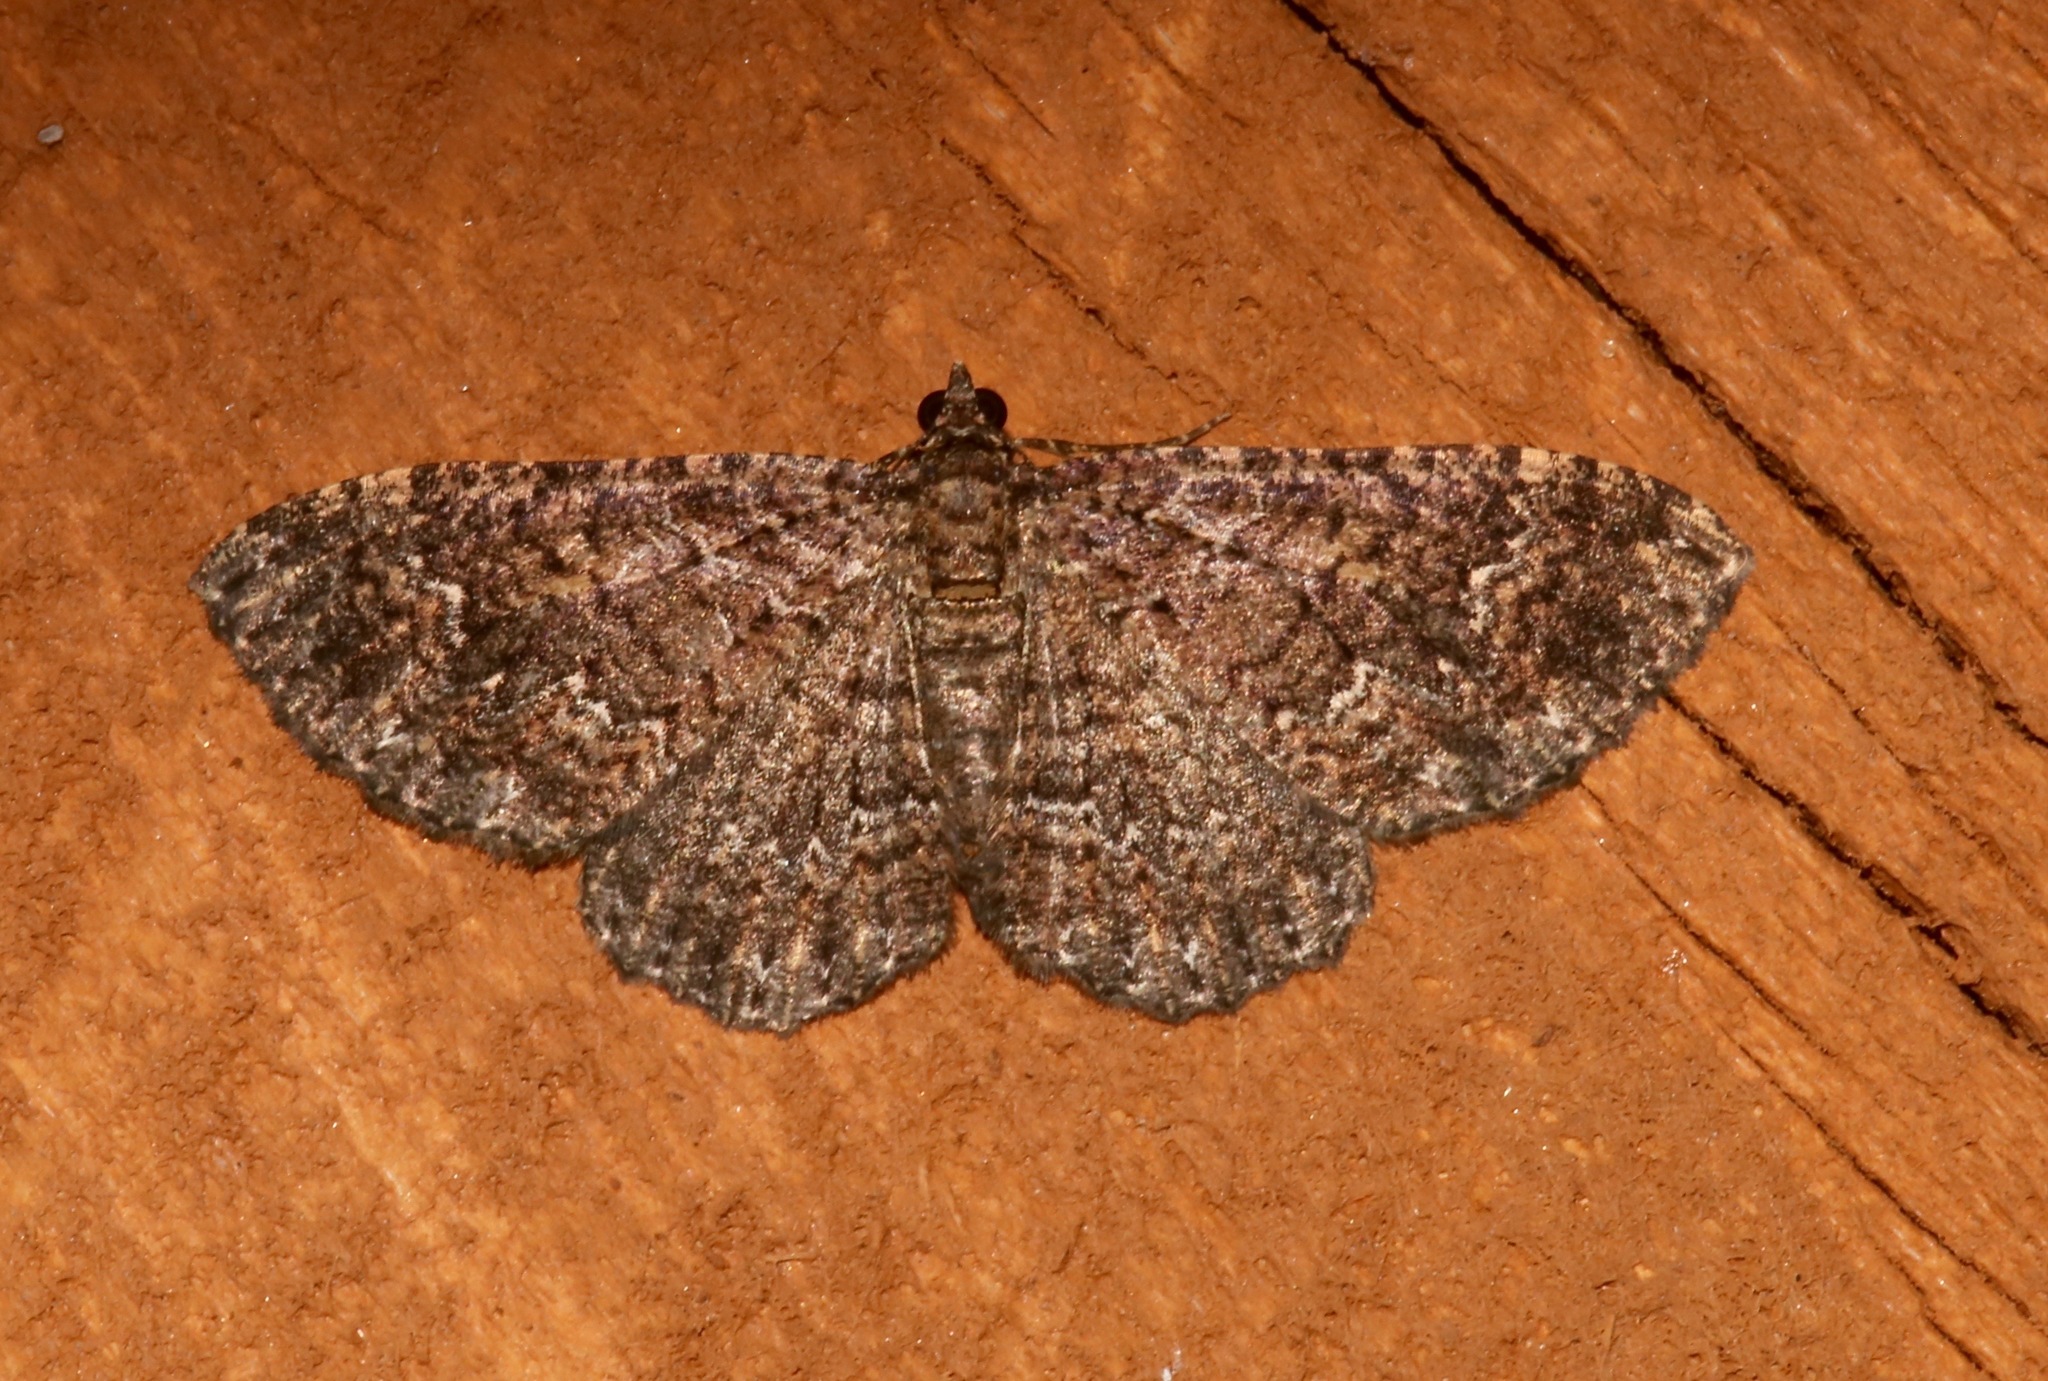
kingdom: Animalia
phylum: Arthropoda
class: Insecta
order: Lepidoptera
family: Geometridae
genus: Disclisioprocta
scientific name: Disclisioprocta stellata
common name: Somber carpet
